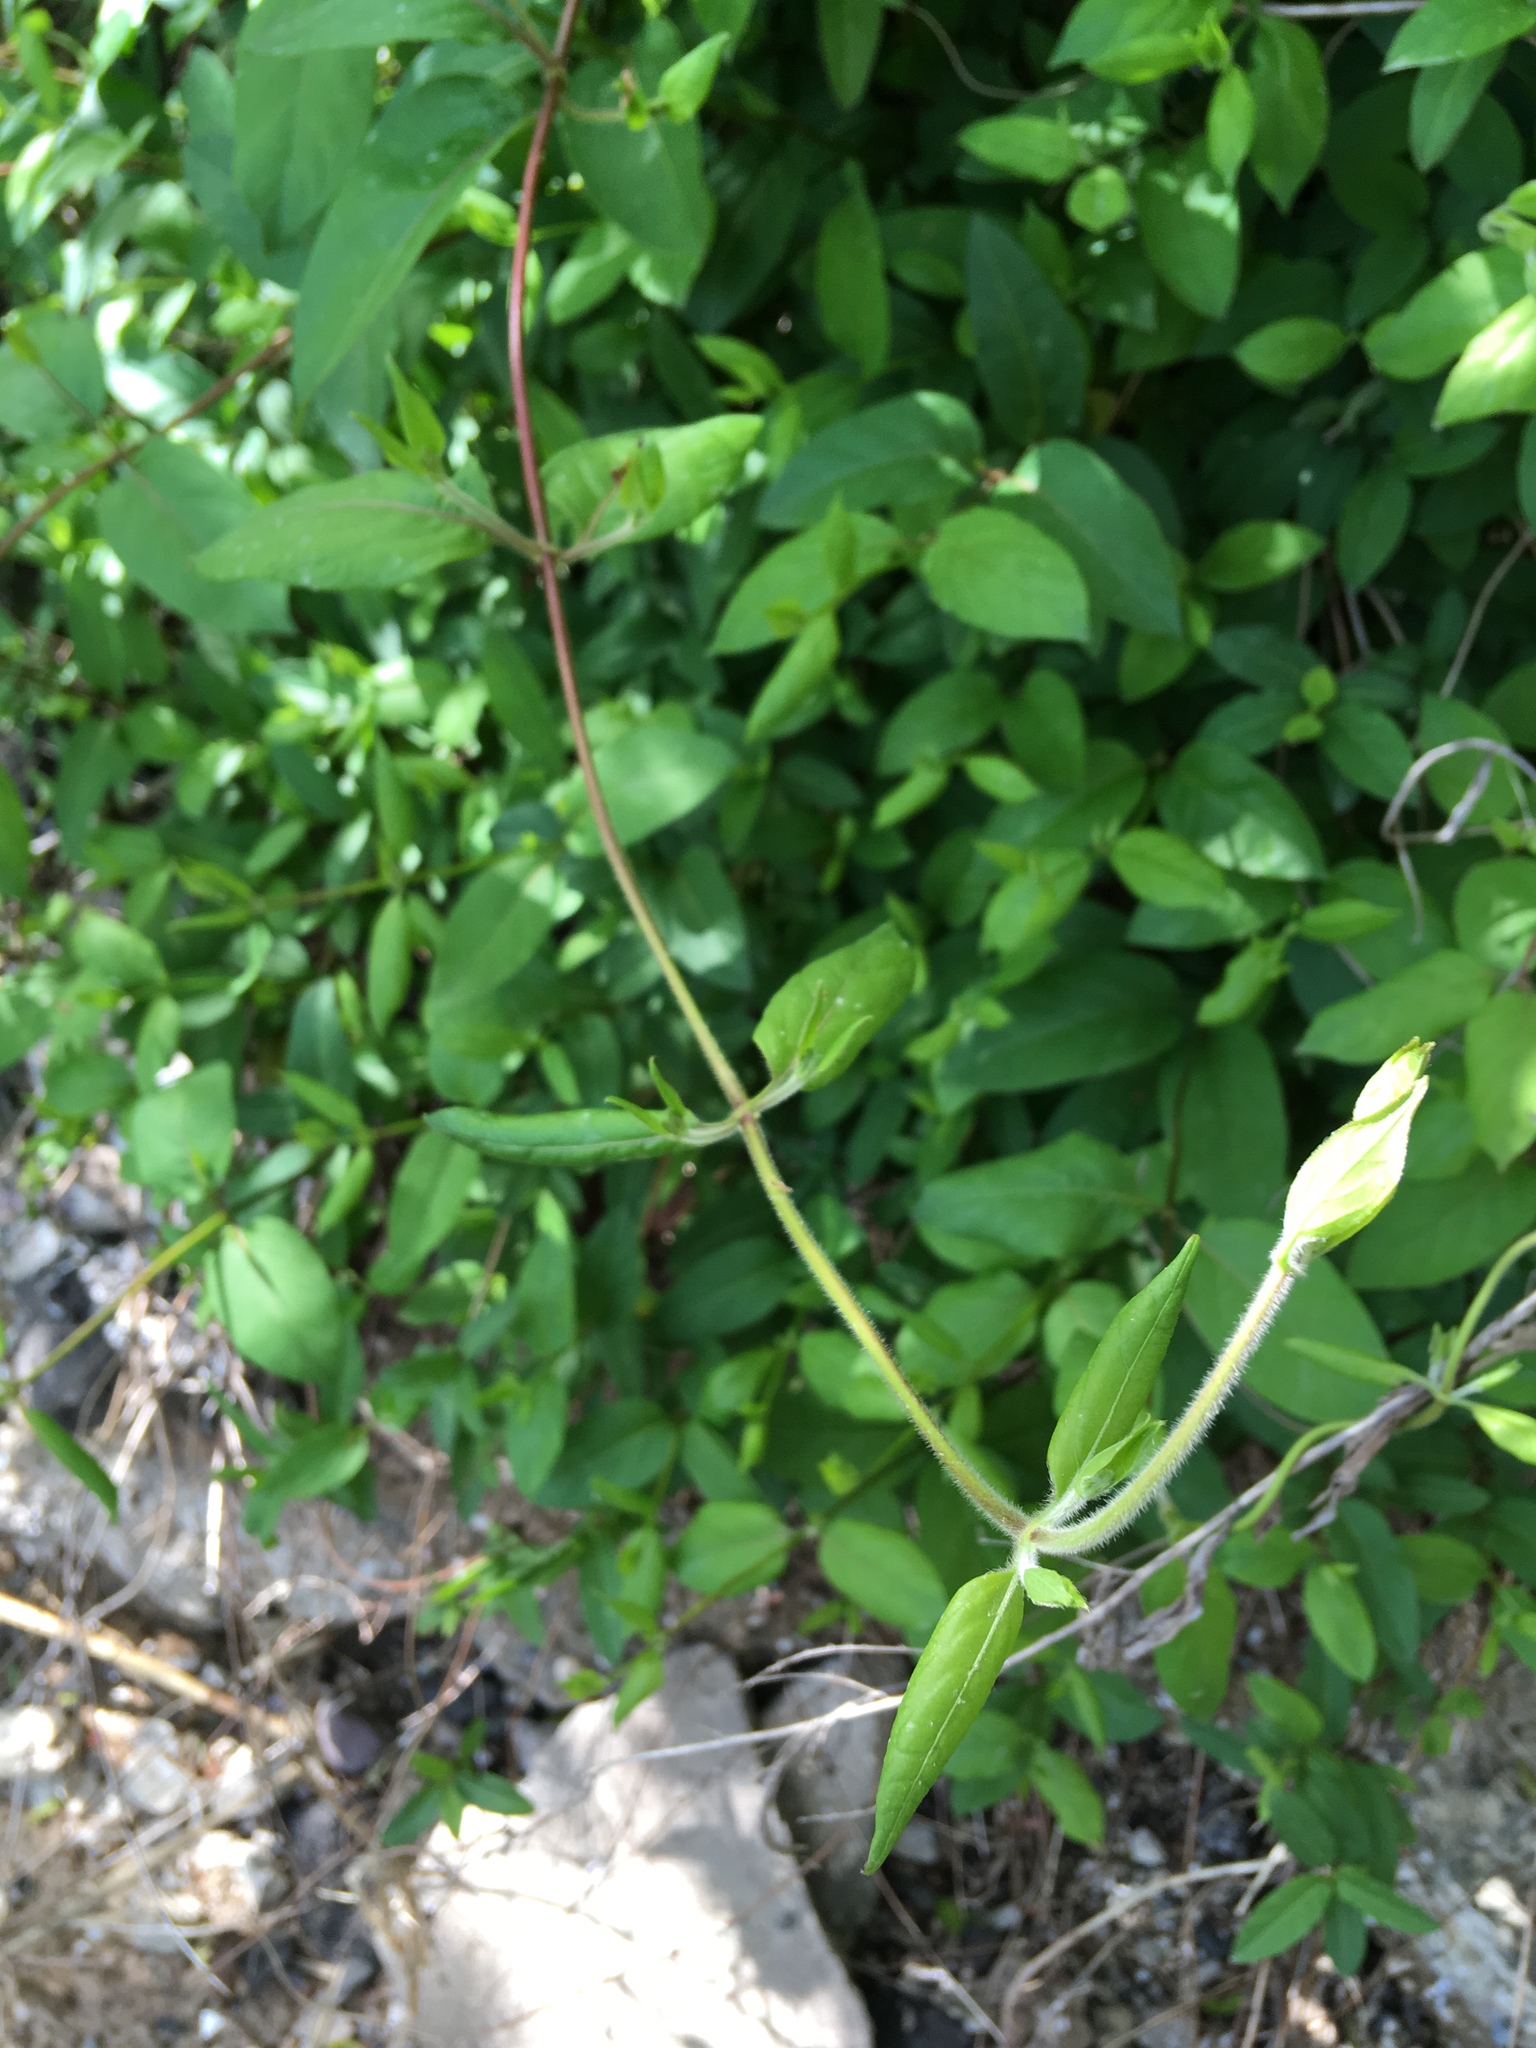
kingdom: Plantae
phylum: Tracheophyta
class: Magnoliopsida
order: Dipsacales
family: Caprifoliaceae
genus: Lonicera
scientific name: Lonicera japonica
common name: Japanese honeysuckle
